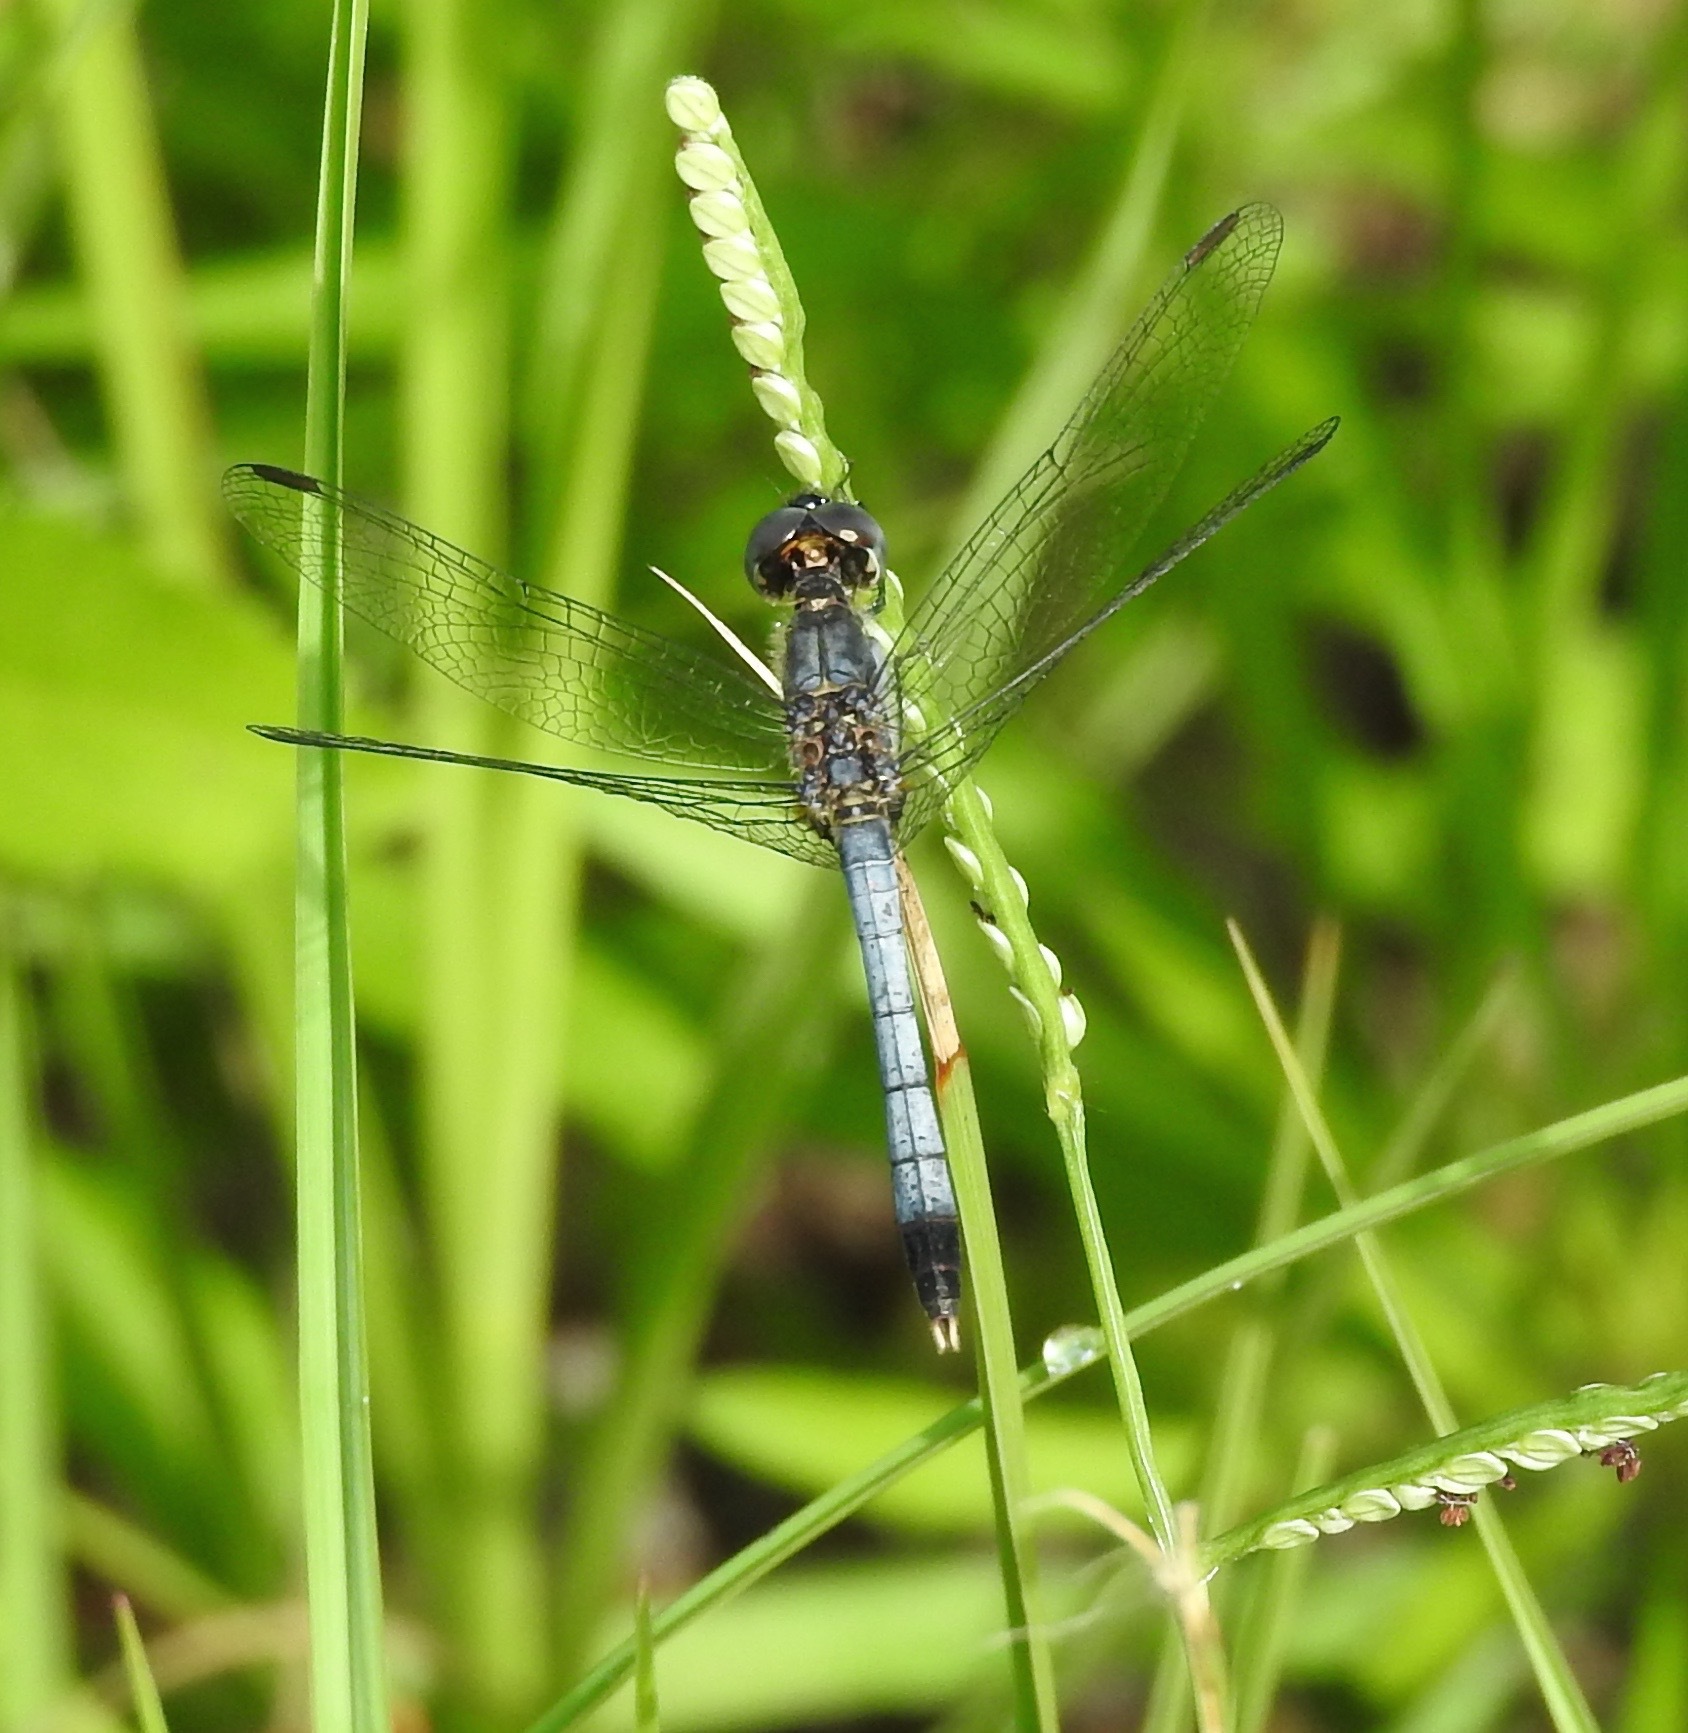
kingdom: Animalia
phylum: Arthropoda
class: Insecta
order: Odonata
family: Libellulidae
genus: Erythrodiplax
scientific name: Erythrodiplax minuscula
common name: Little blue dragonlet
